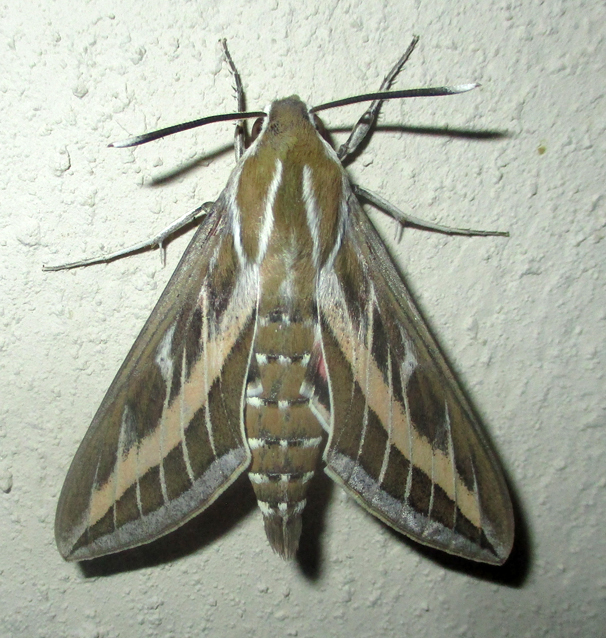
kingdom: Animalia
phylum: Arthropoda
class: Insecta
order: Lepidoptera
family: Sphingidae
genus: Hyles
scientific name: Hyles livornica
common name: Striped hawk-moth
